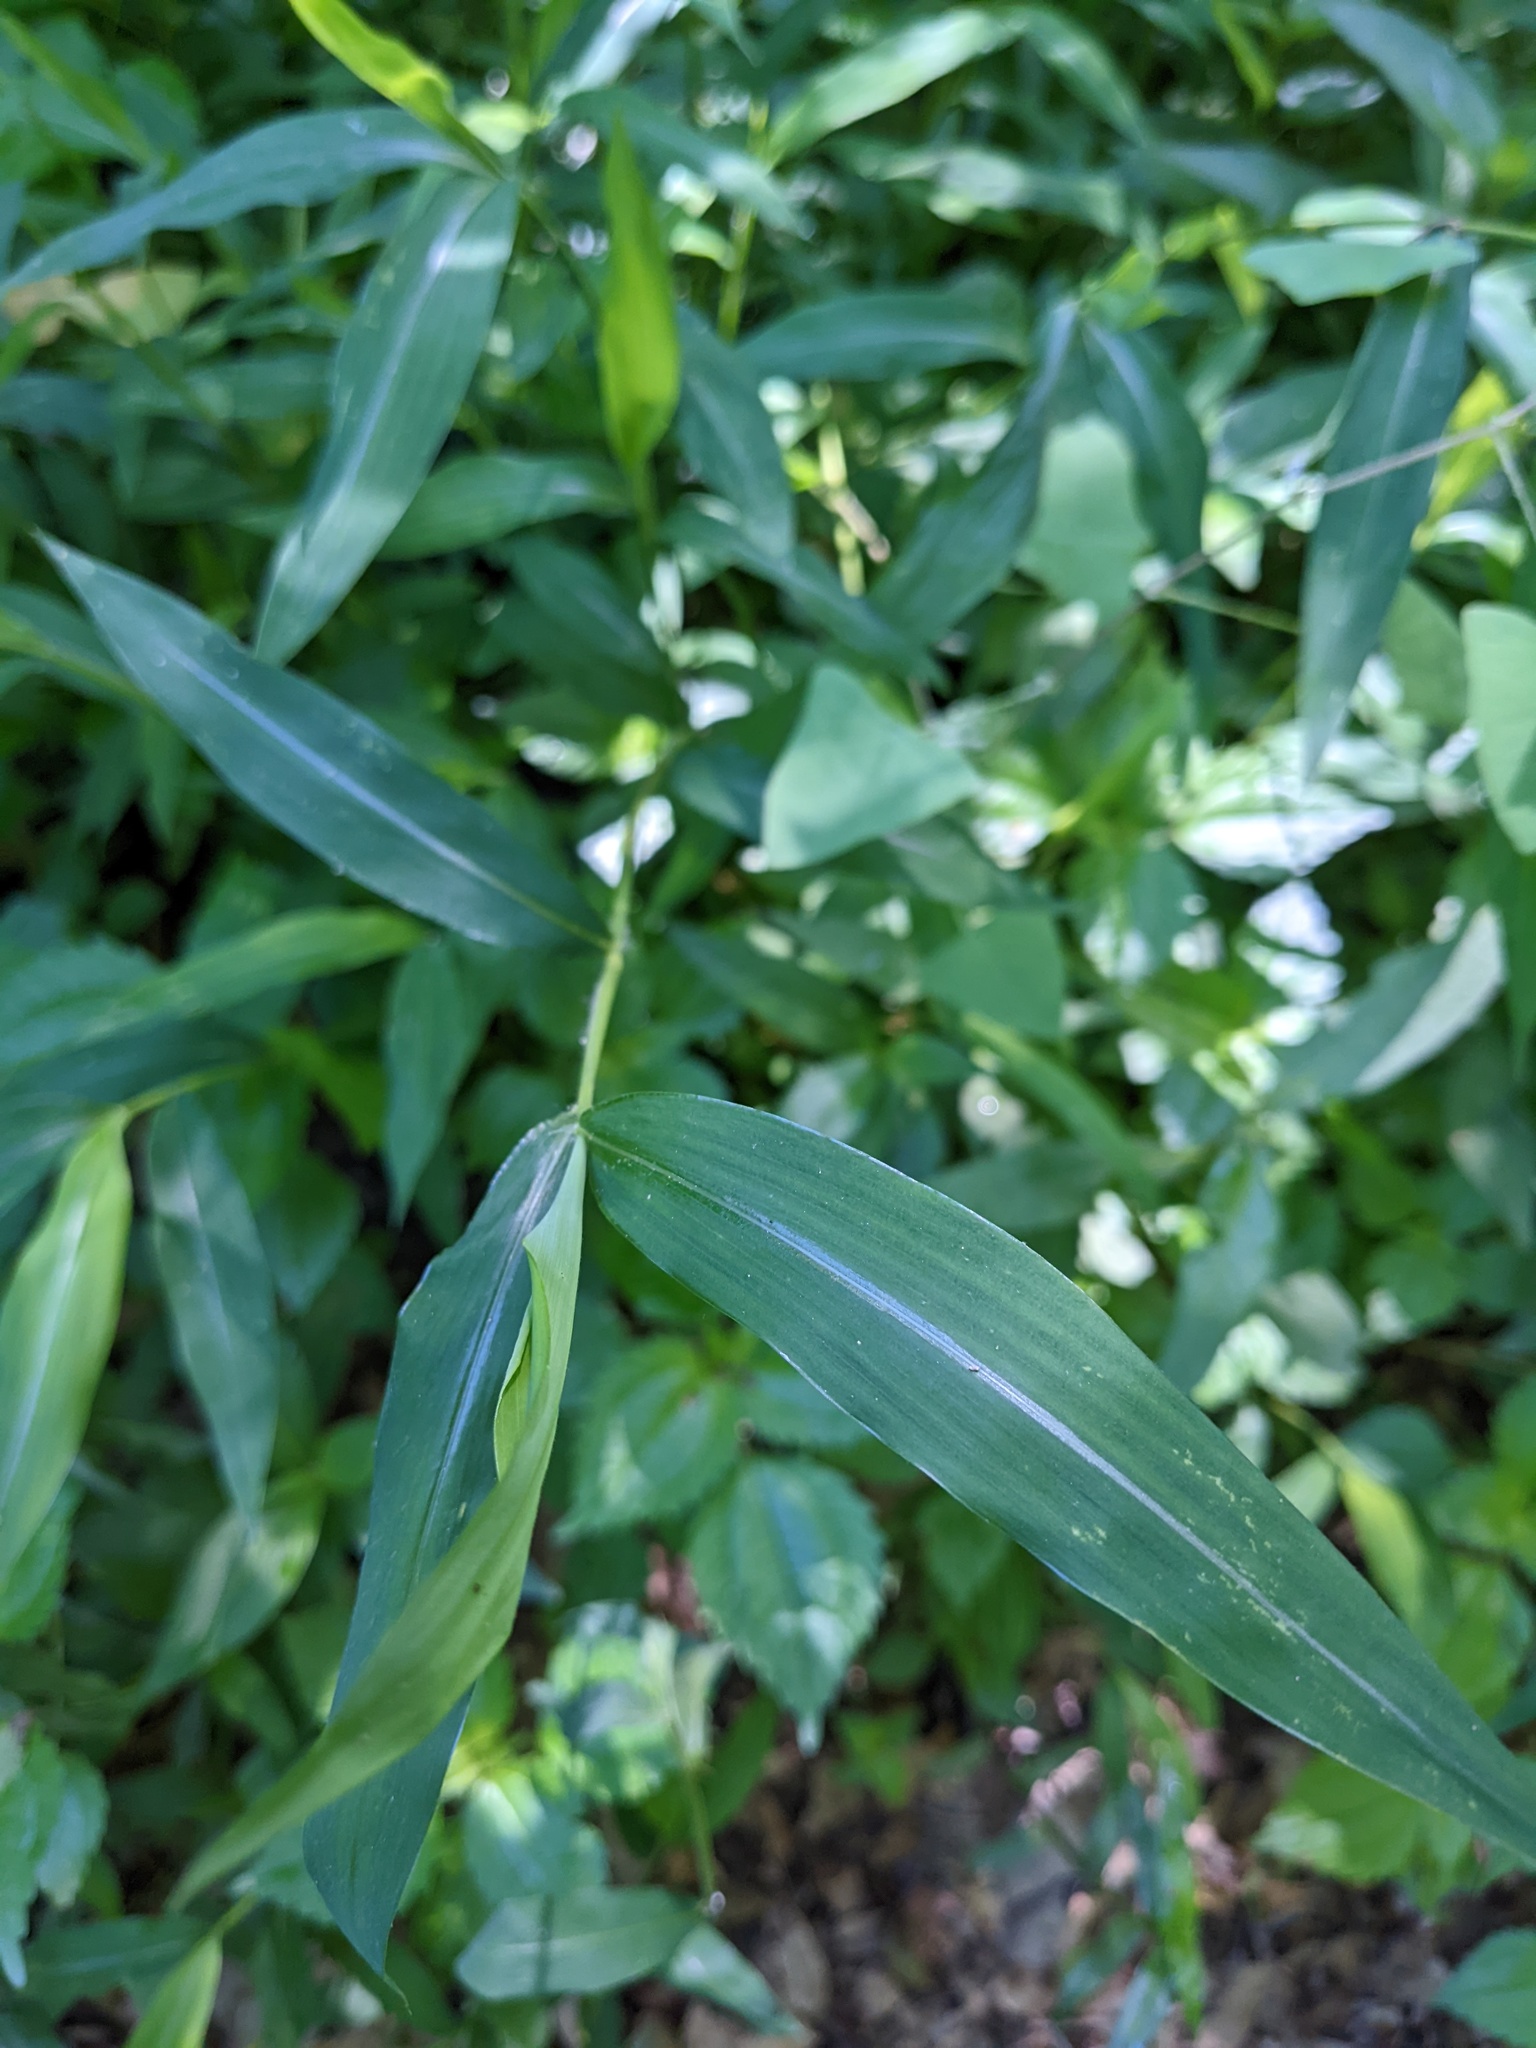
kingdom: Plantae
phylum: Tracheophyta
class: Liliopsida
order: Poales
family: Poaceae
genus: Microstegium
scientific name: Microstegium vimineum
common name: Japanese stiltgrass
